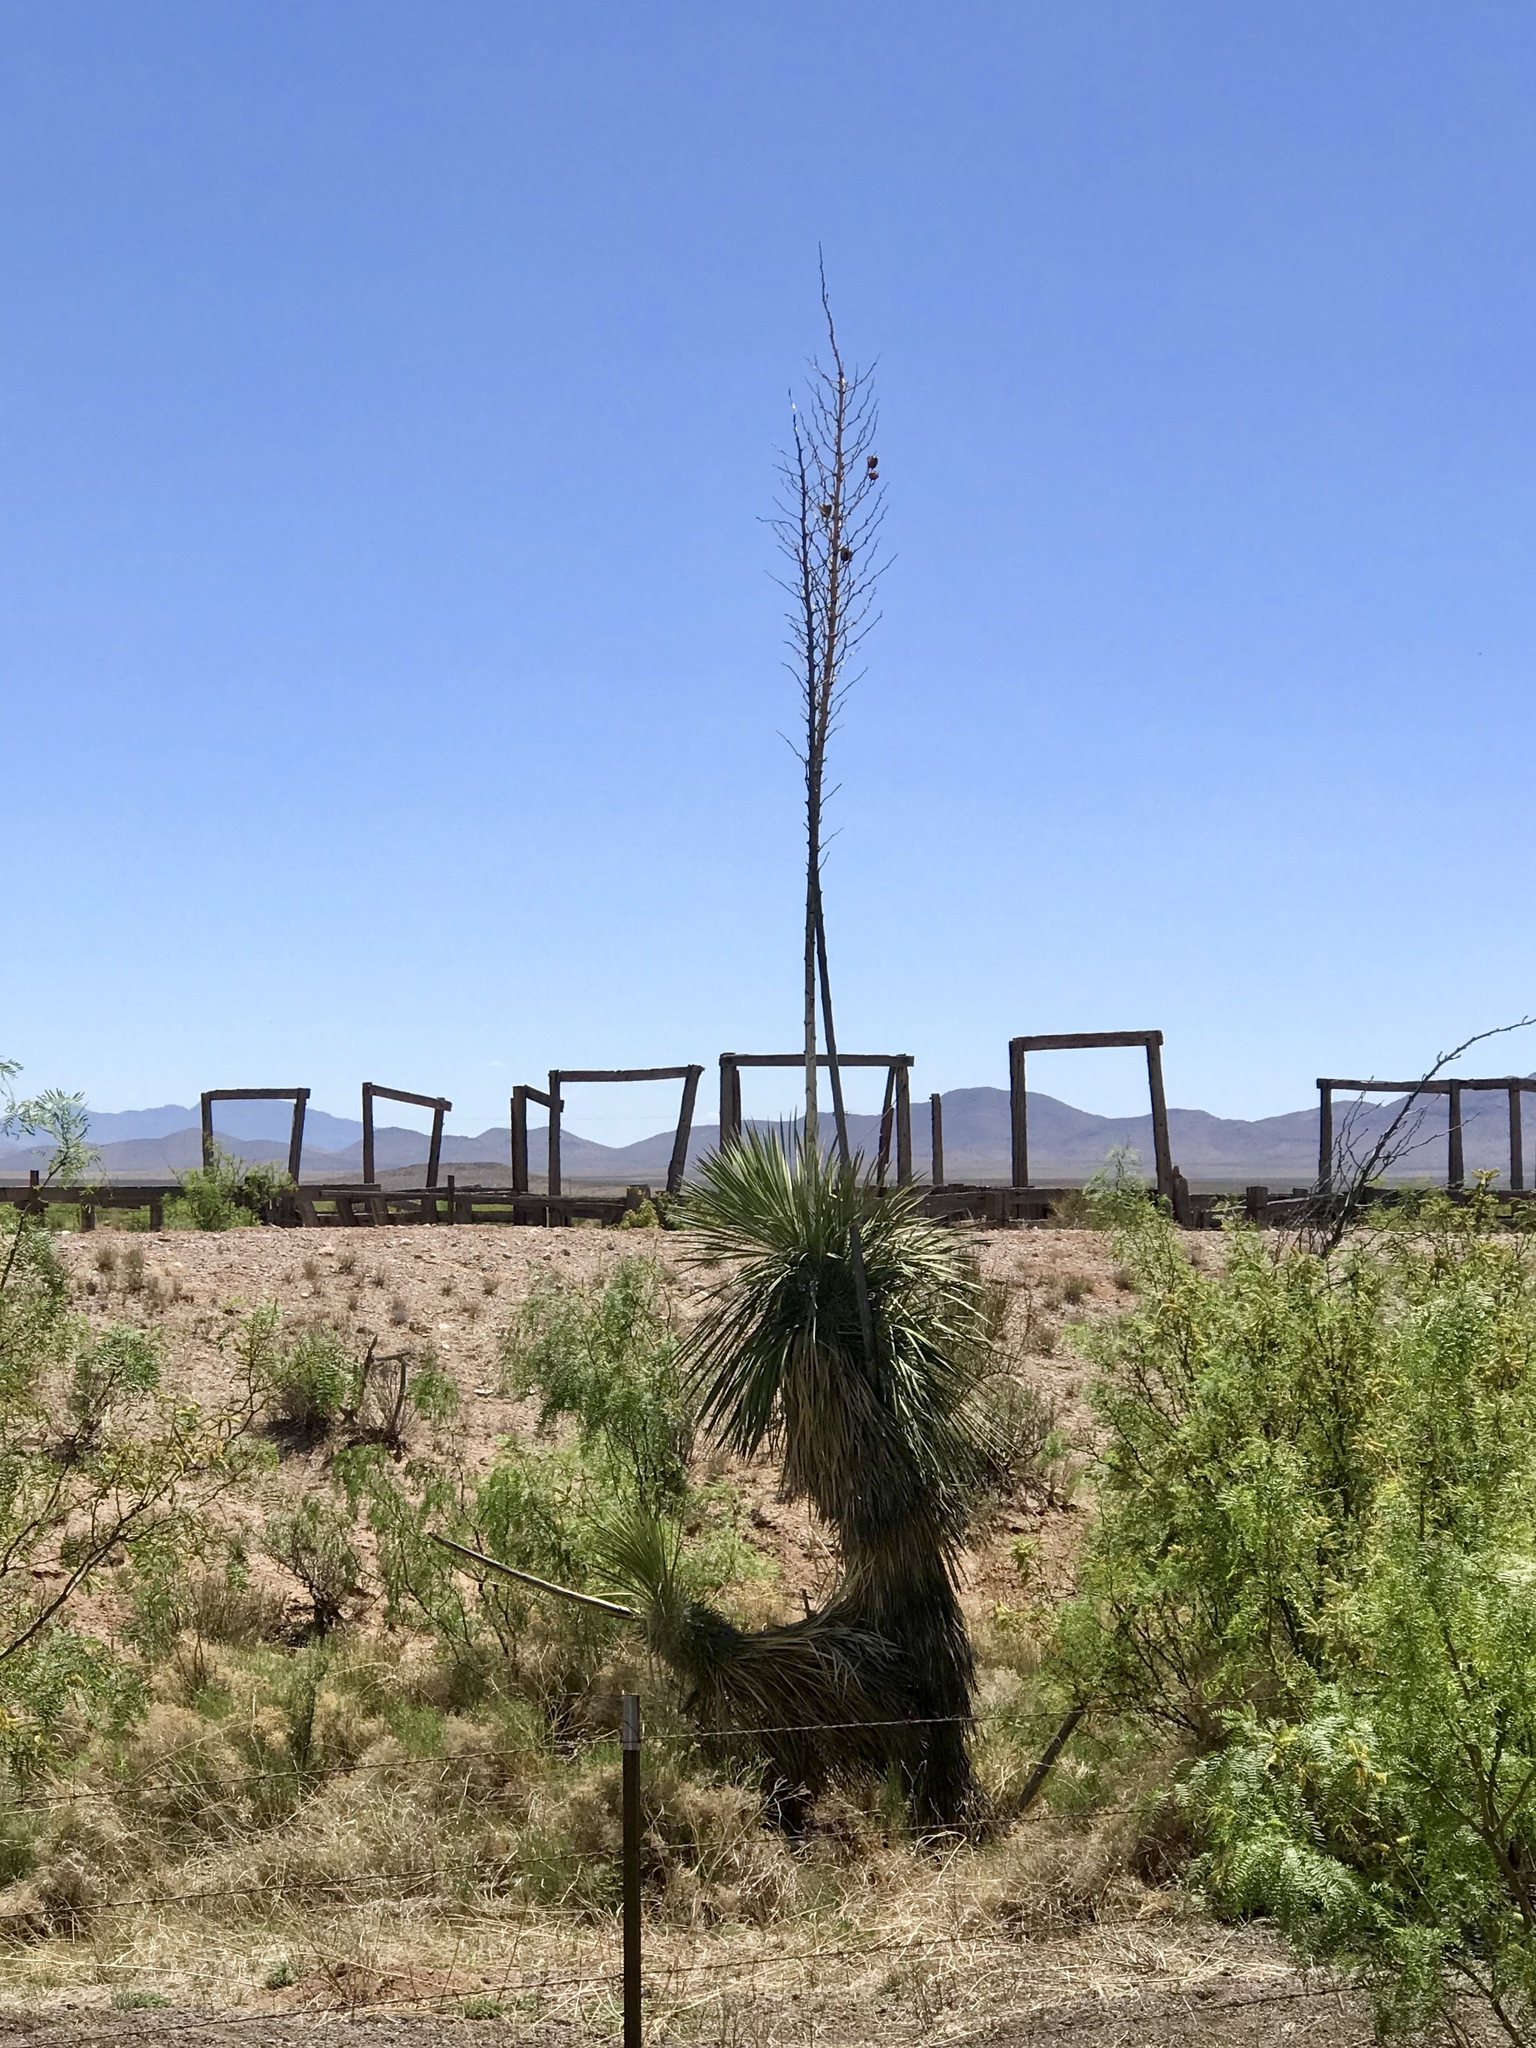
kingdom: Plantae
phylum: Tracheophyta
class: Liliopsida
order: Asparagales
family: Asparagaceae
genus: Yucca
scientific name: Yucca elata
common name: Palmella
